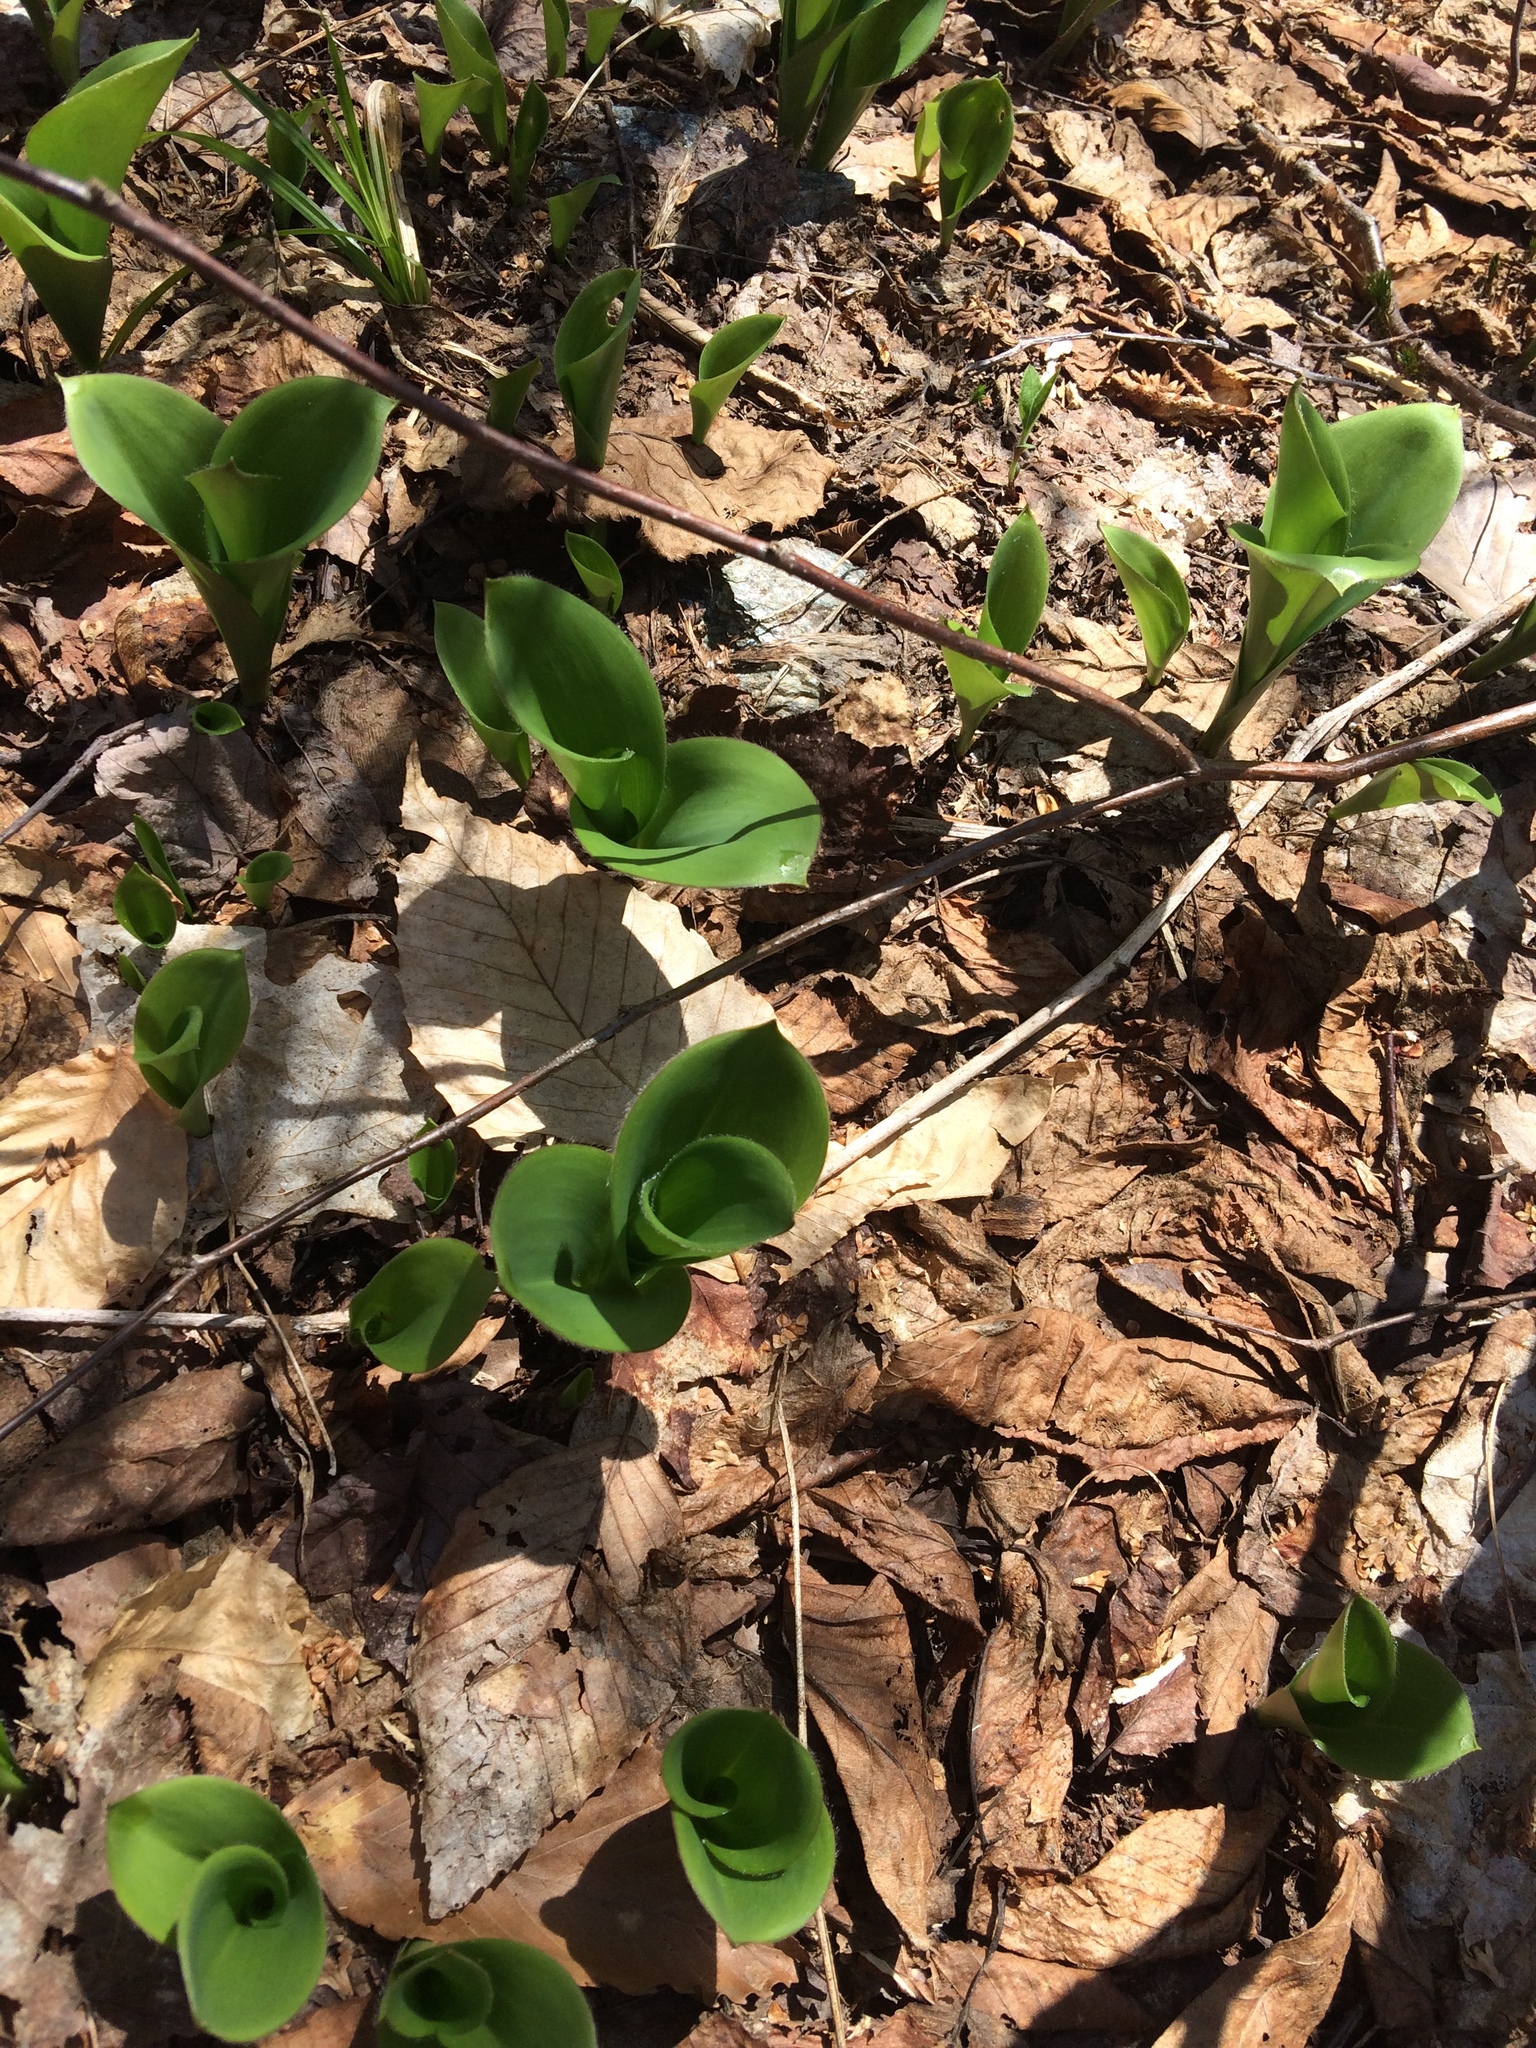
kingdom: Plantae
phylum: Tracheophyta
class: Liliopsida
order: Liliales
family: Liliaceae
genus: Clintonia
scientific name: Clintonia borealis
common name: Yellow clintonia
